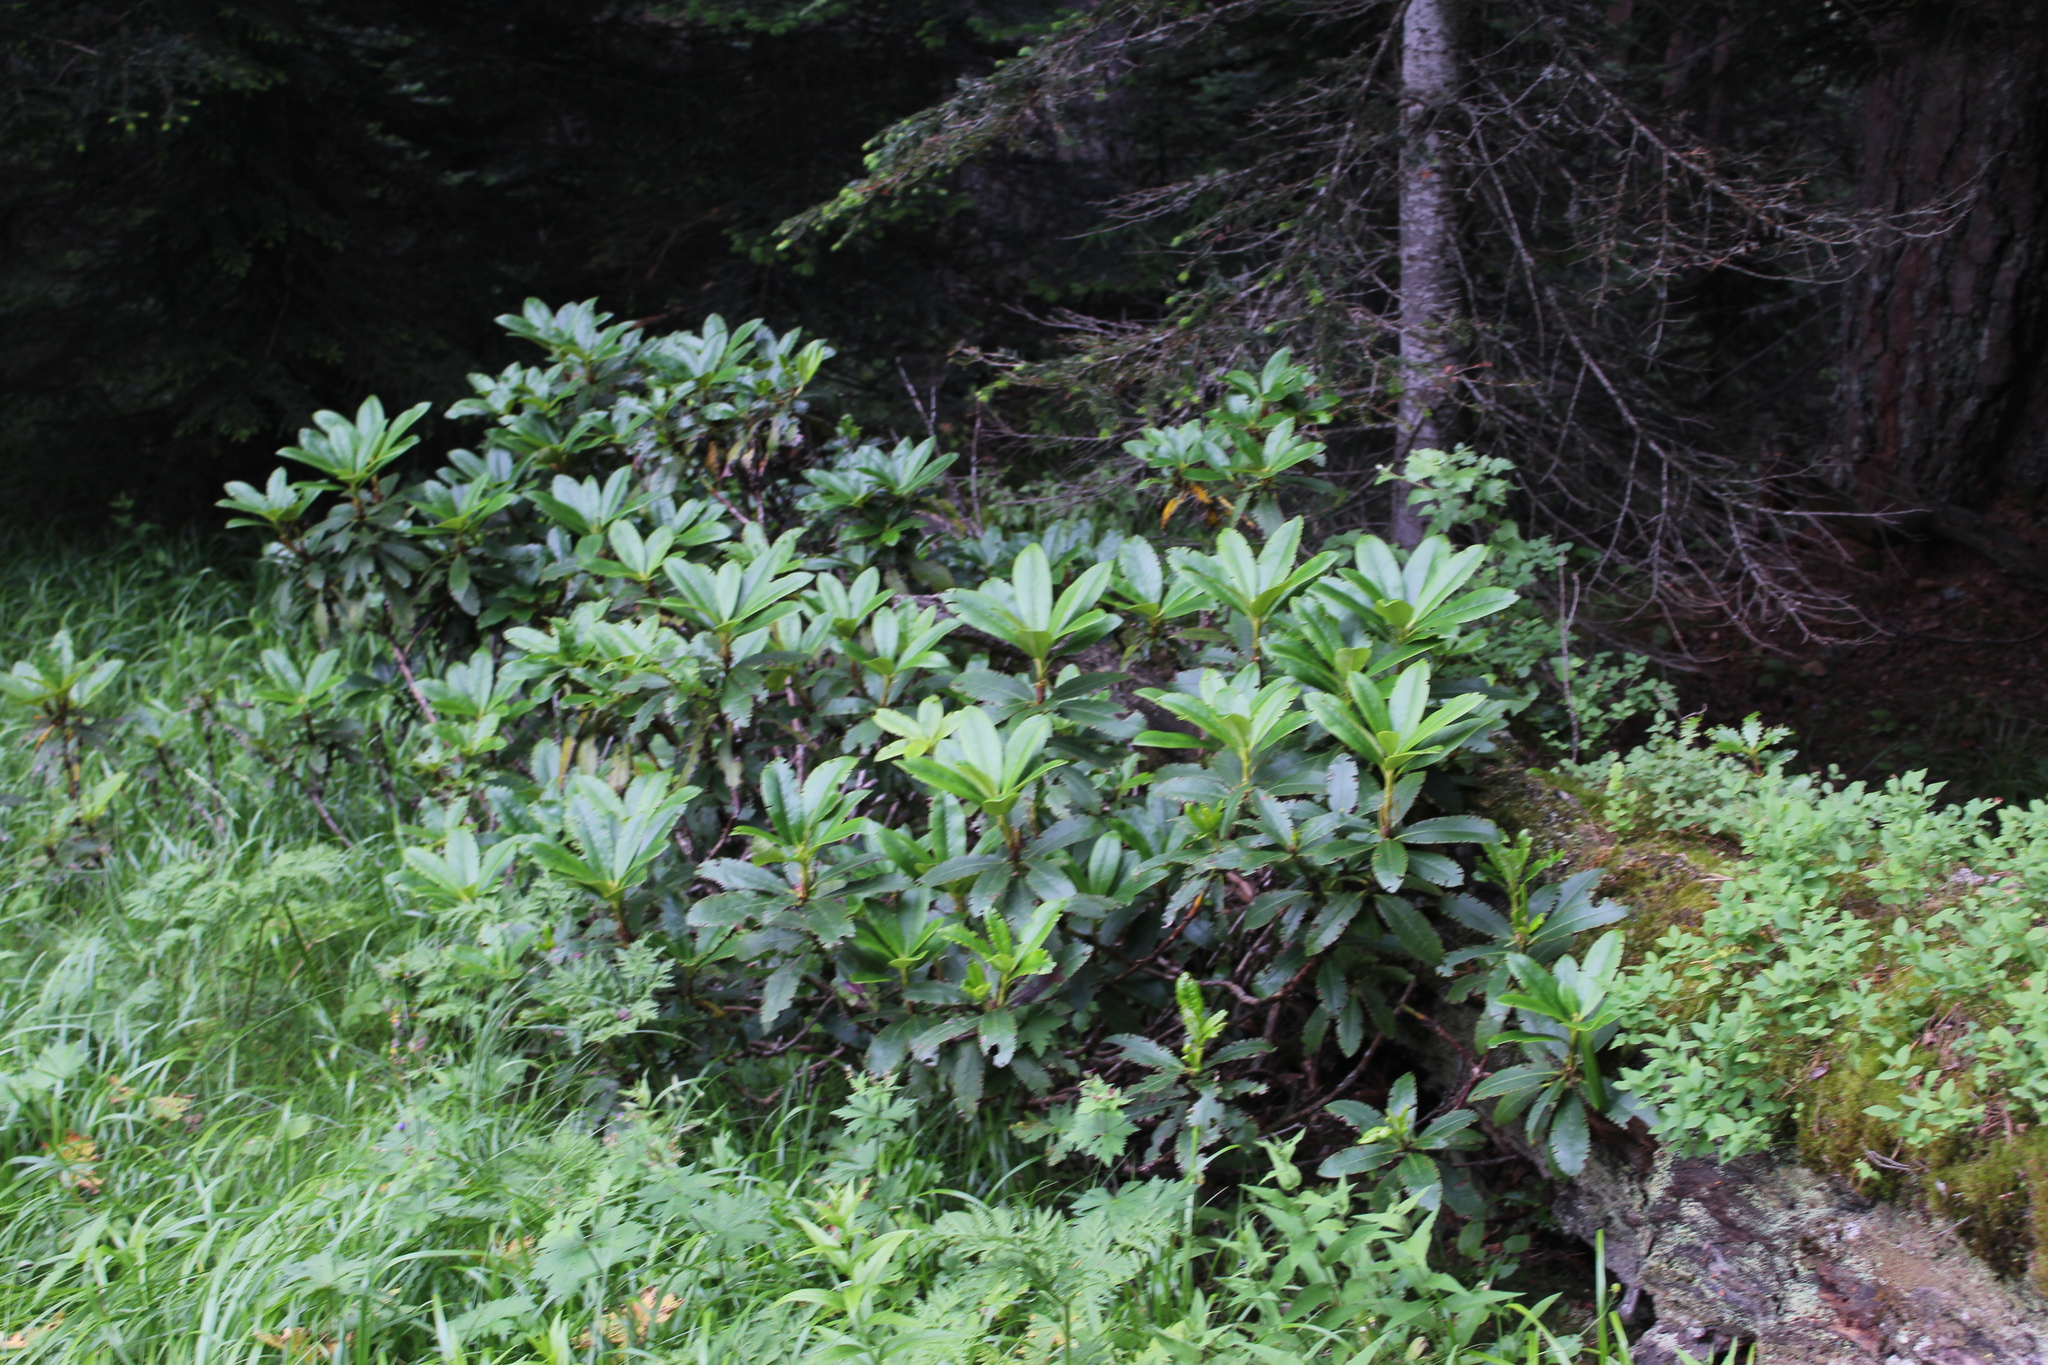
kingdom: Plantae
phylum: Tracheophyta
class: Magnoliopsida
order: Ericales
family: Ericaceae
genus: Rhododendron
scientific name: Rhododendron caucasicum
